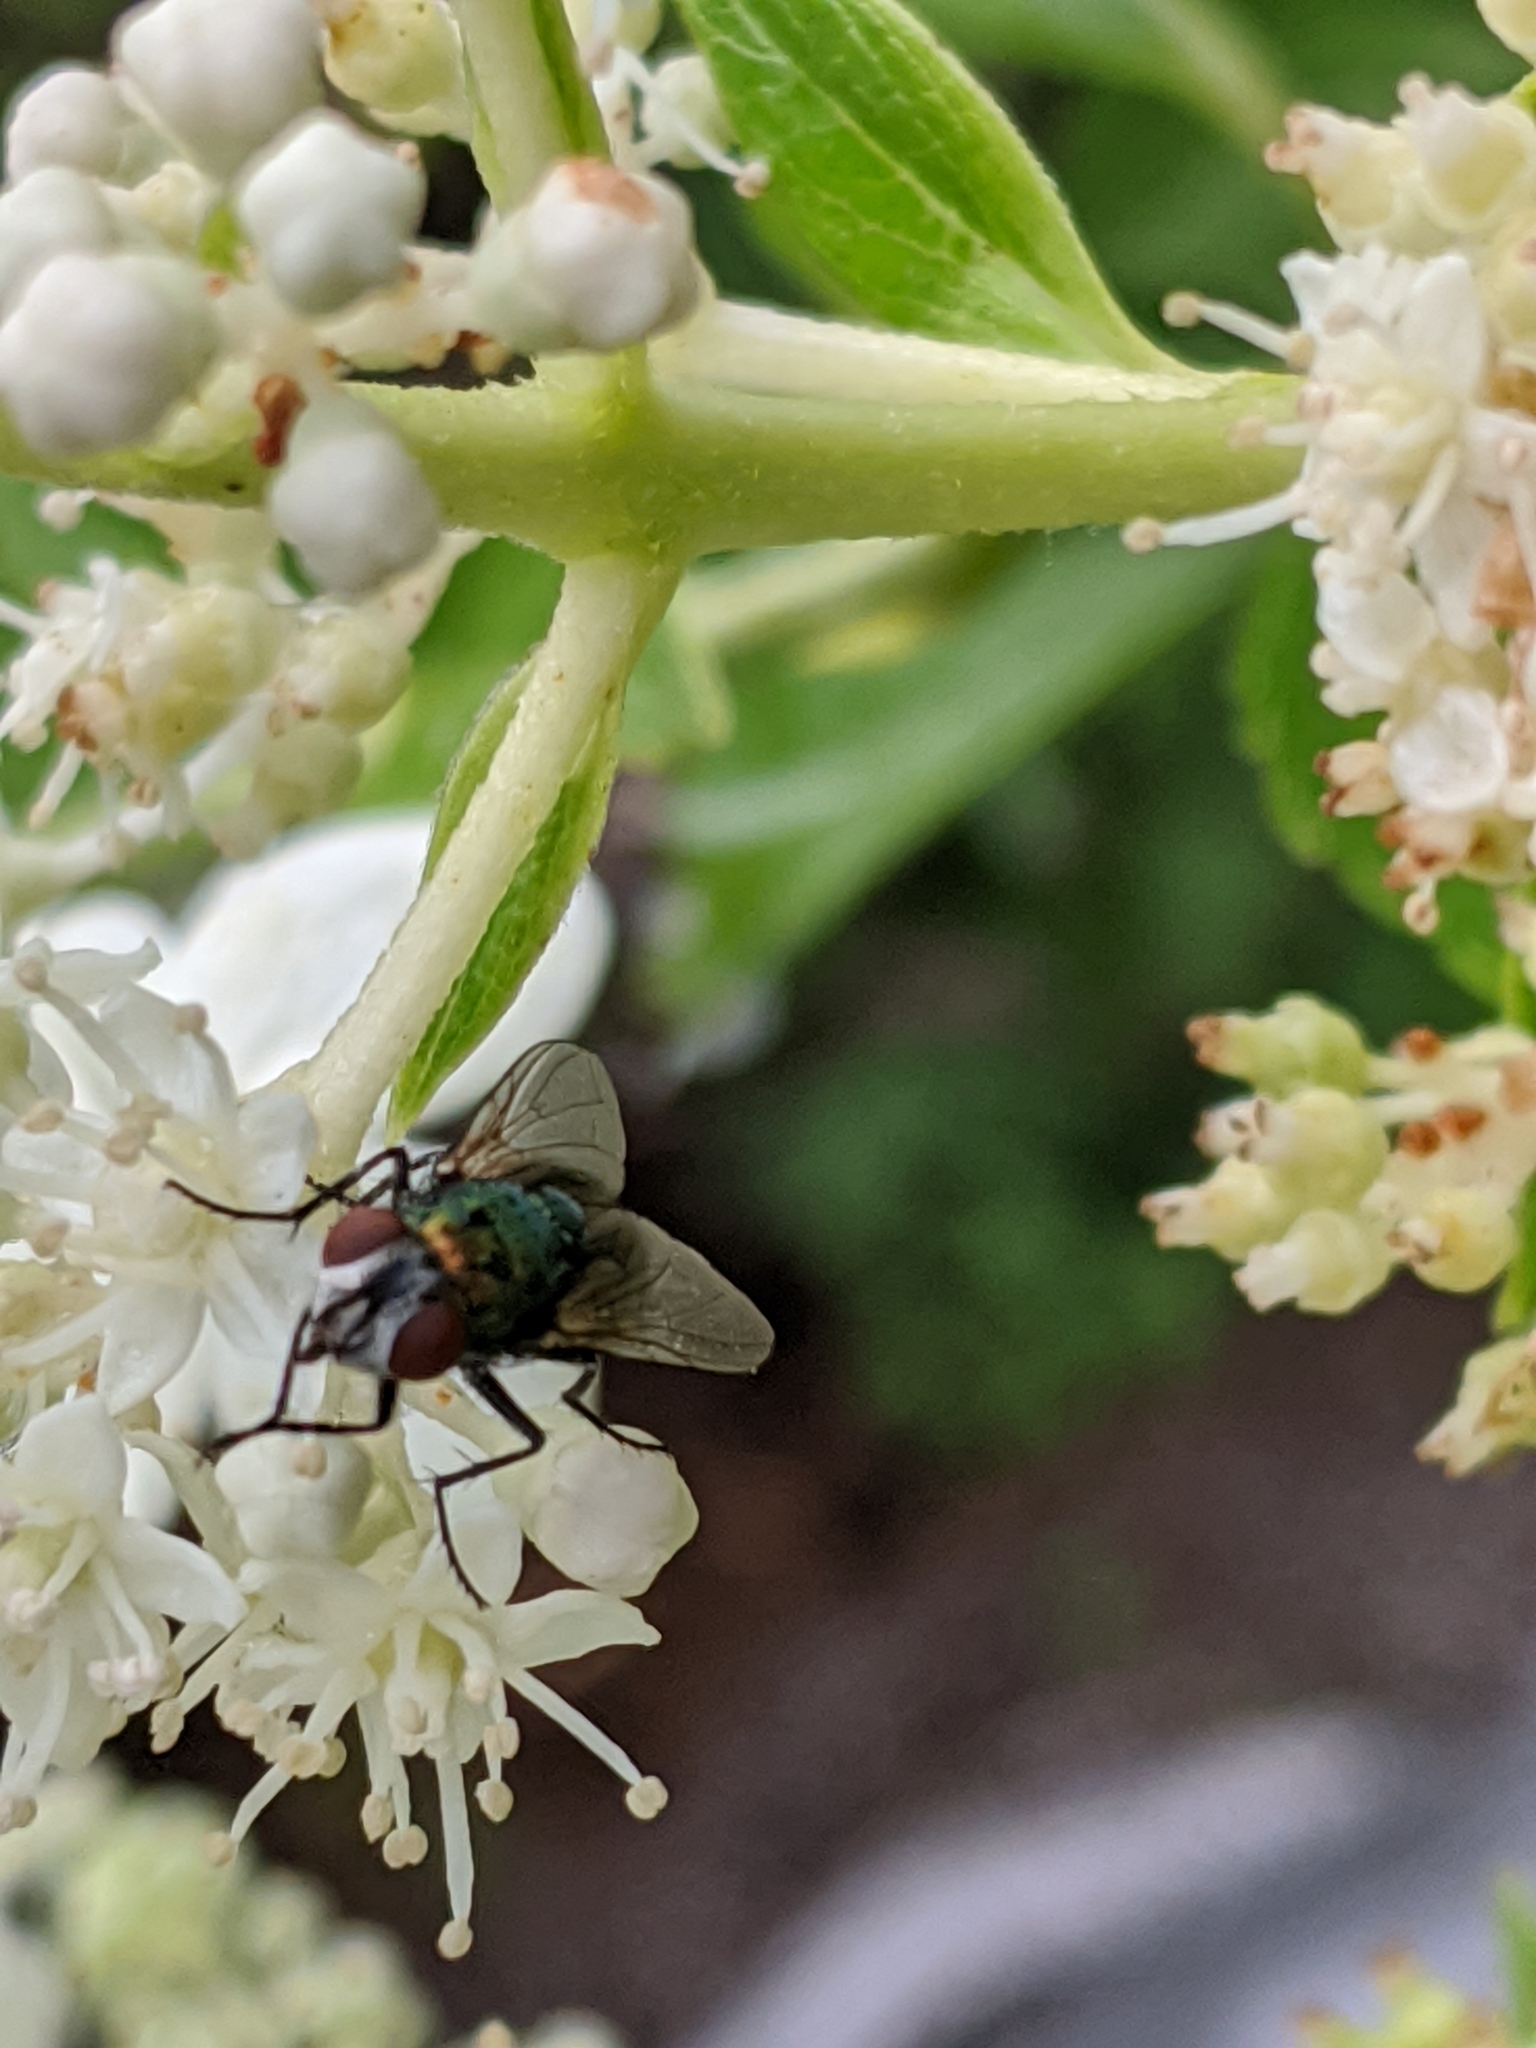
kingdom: Animalia
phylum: Arthropoda
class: Insecta
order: Diptera
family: Calliphoridae
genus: Lucilia
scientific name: Lucilia sericata
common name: Blow fly
